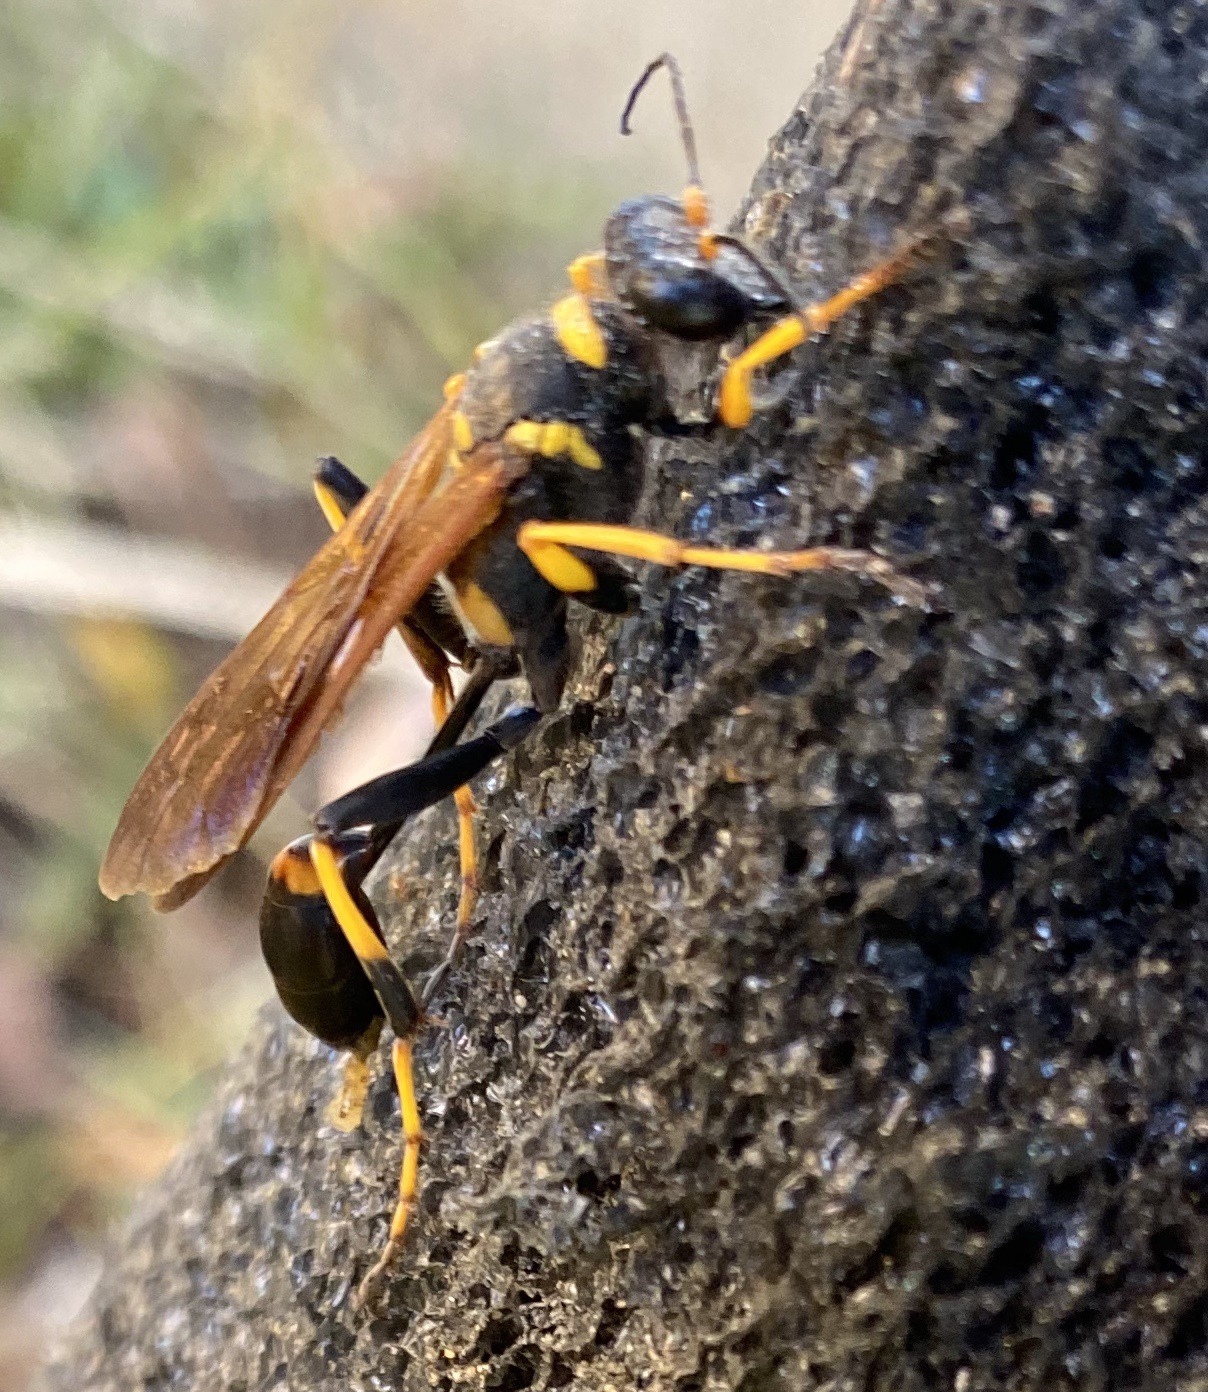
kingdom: Animalia
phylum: Arthropoda
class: Insecta
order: Hymenoptera
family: Sphecidae
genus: Sceliphron
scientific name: Sceliphron caementarium
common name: Mud dauber
